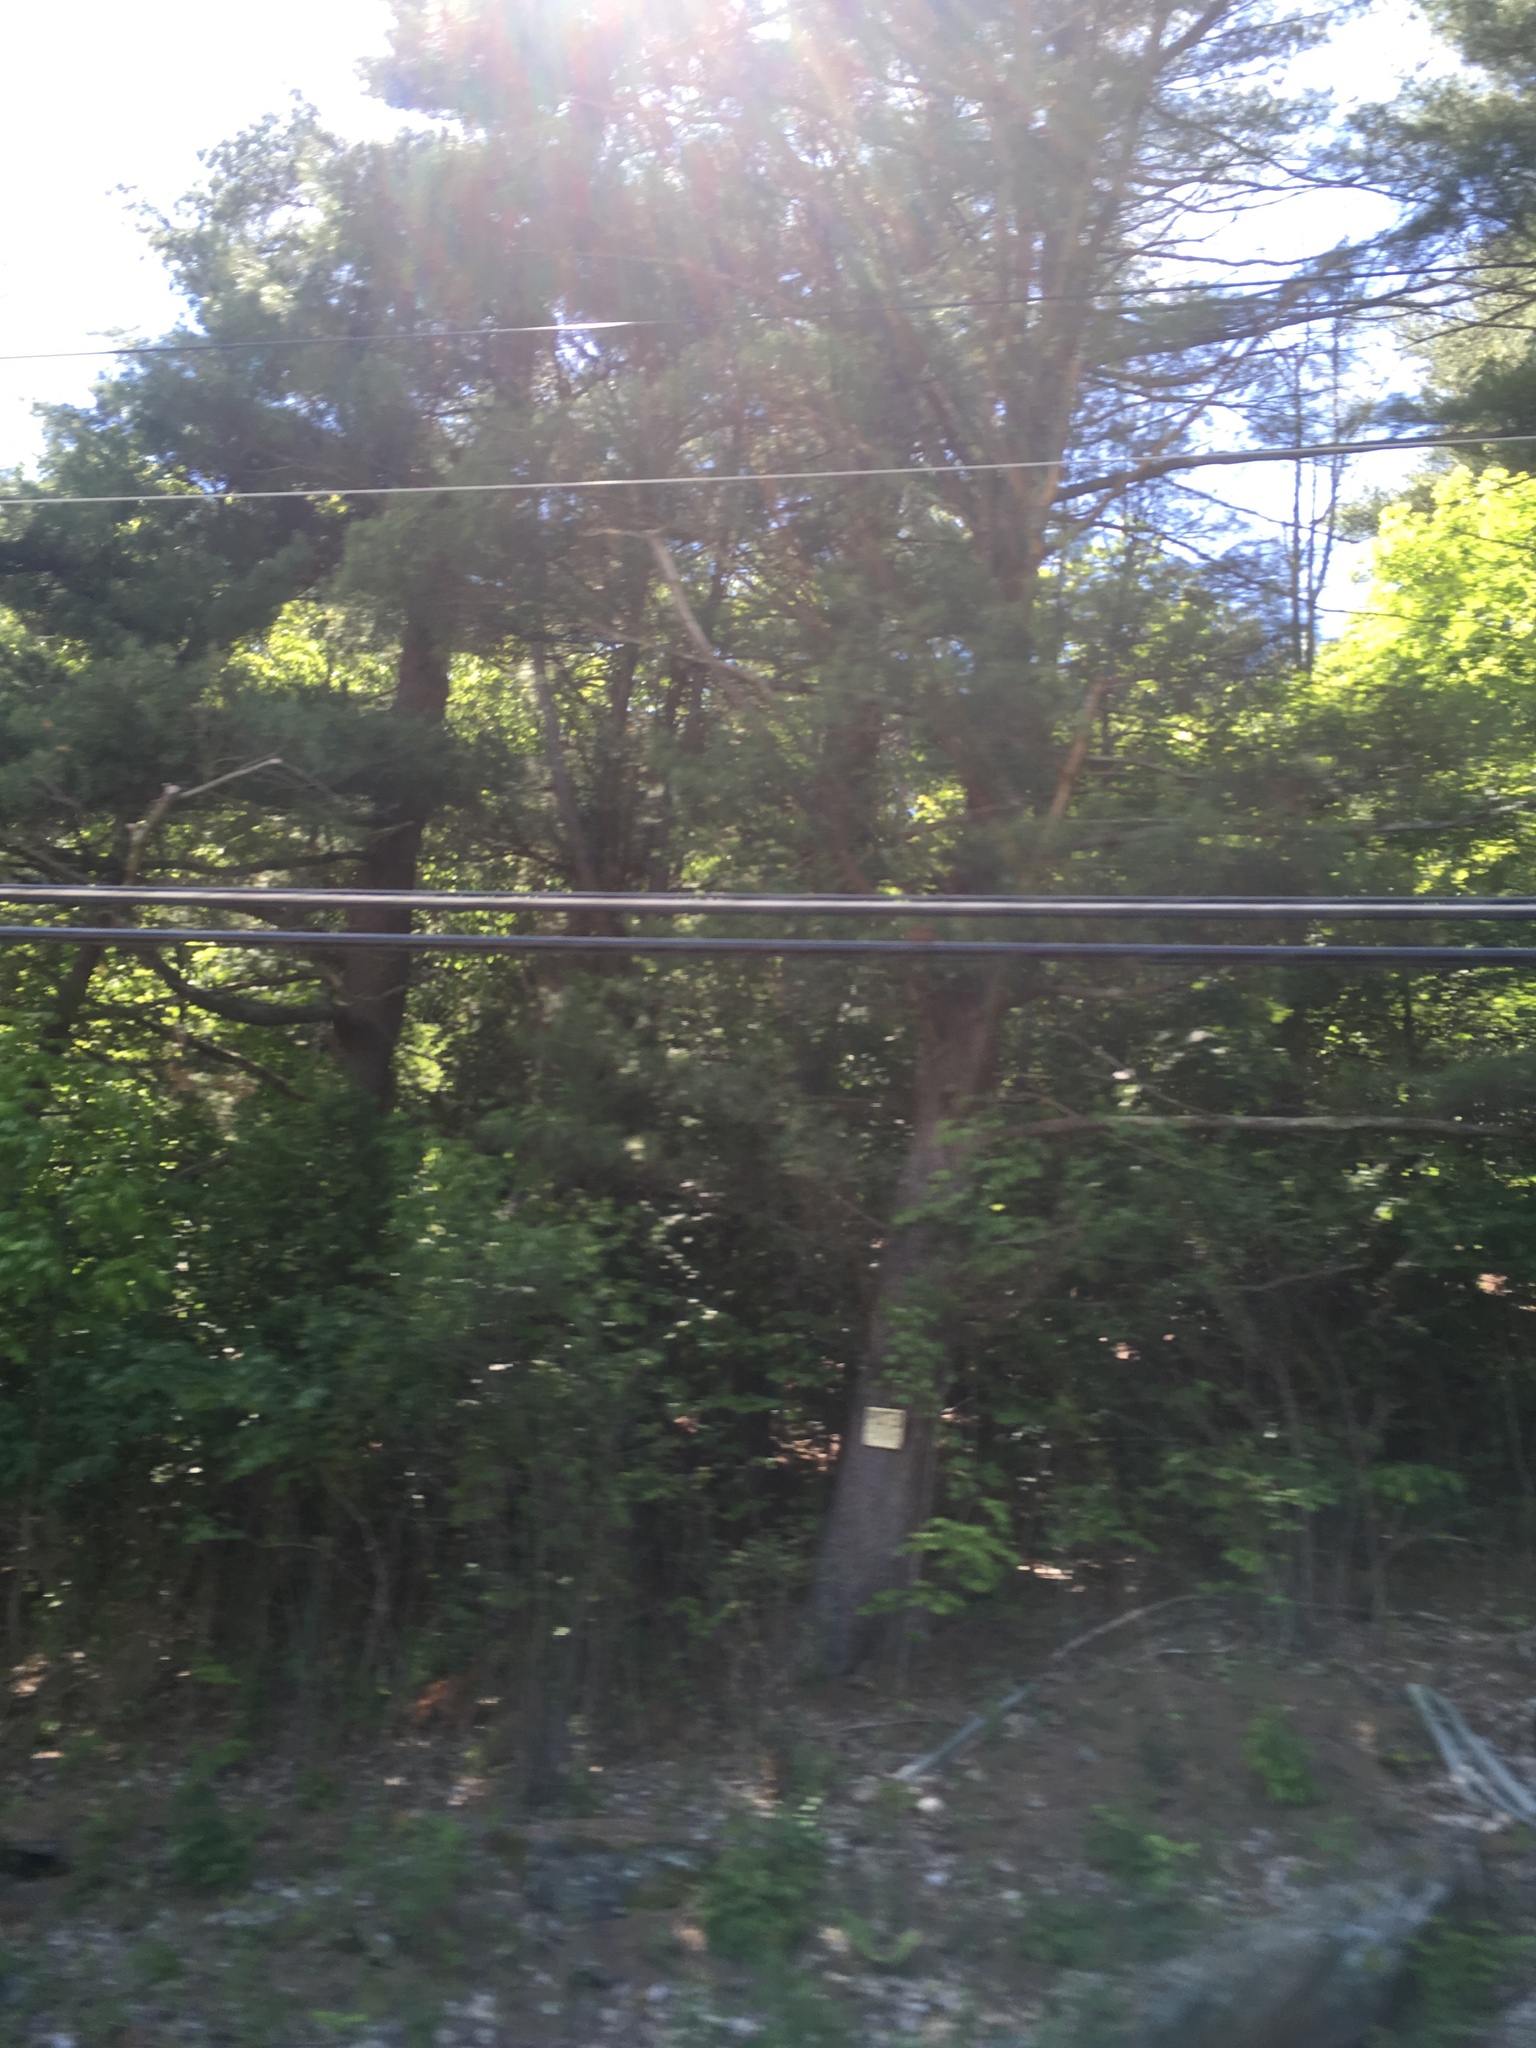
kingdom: Plantae
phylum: Tracheophyta
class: Pinopsida
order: Pinales
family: Pinaceae
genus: Pinus
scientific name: Pinus strobus
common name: Weymouth pine
